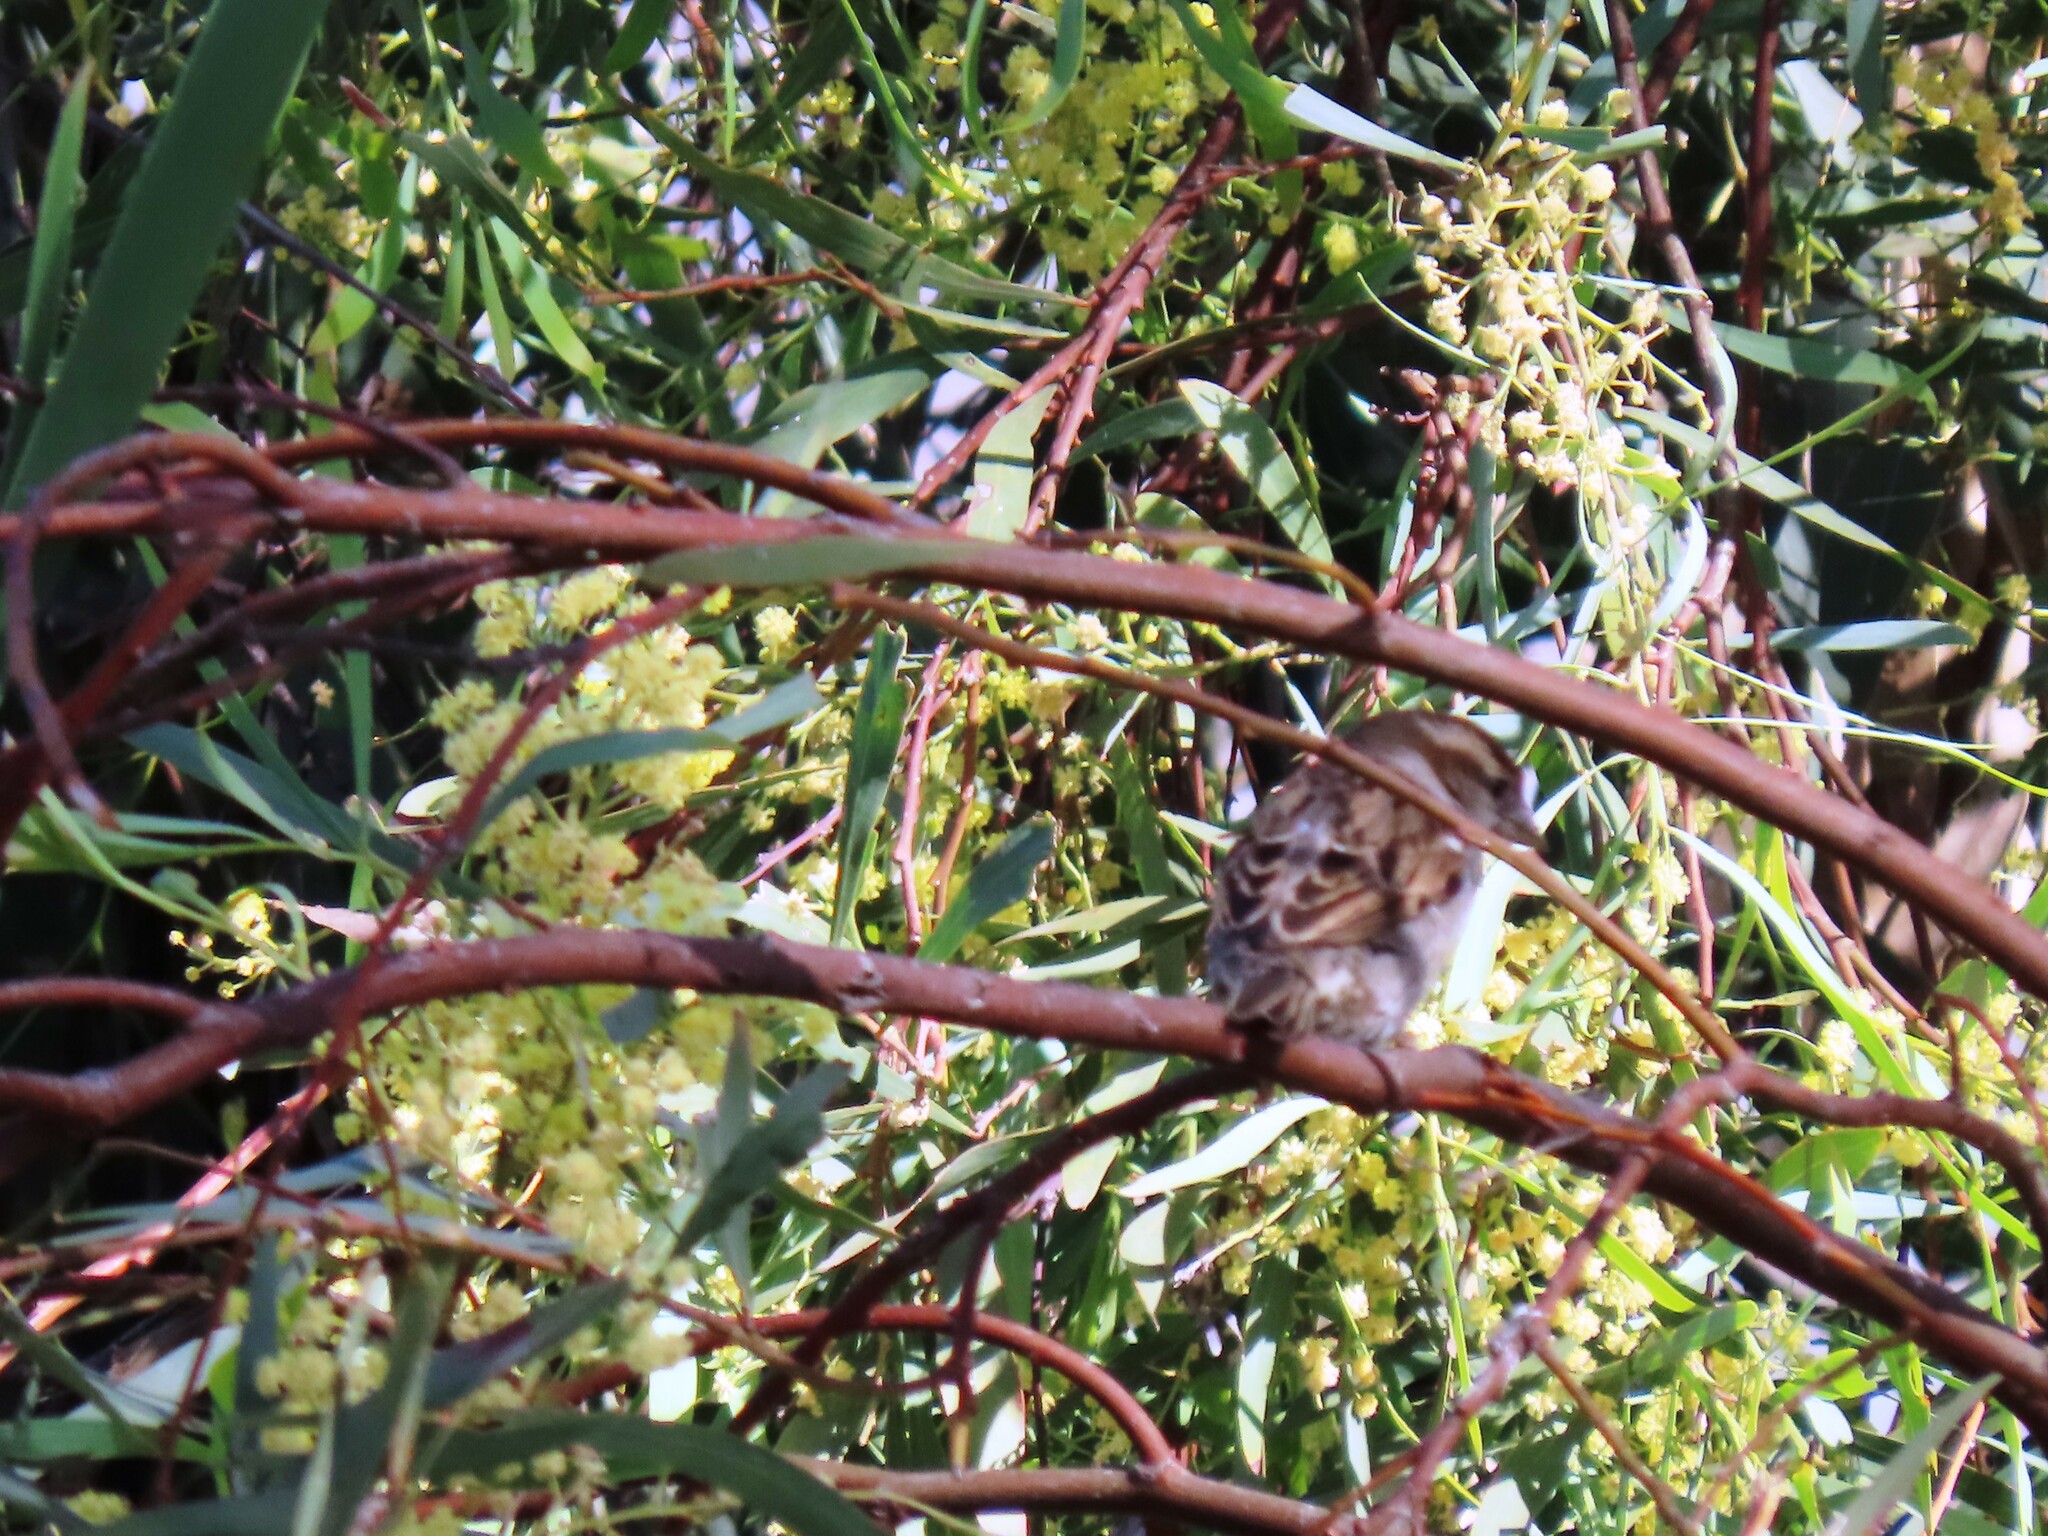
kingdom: Animalia
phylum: Chordata
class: Aves
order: Passeriformes
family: Passeridae
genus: Passer
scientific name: Passer domesticus
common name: House sparrow
